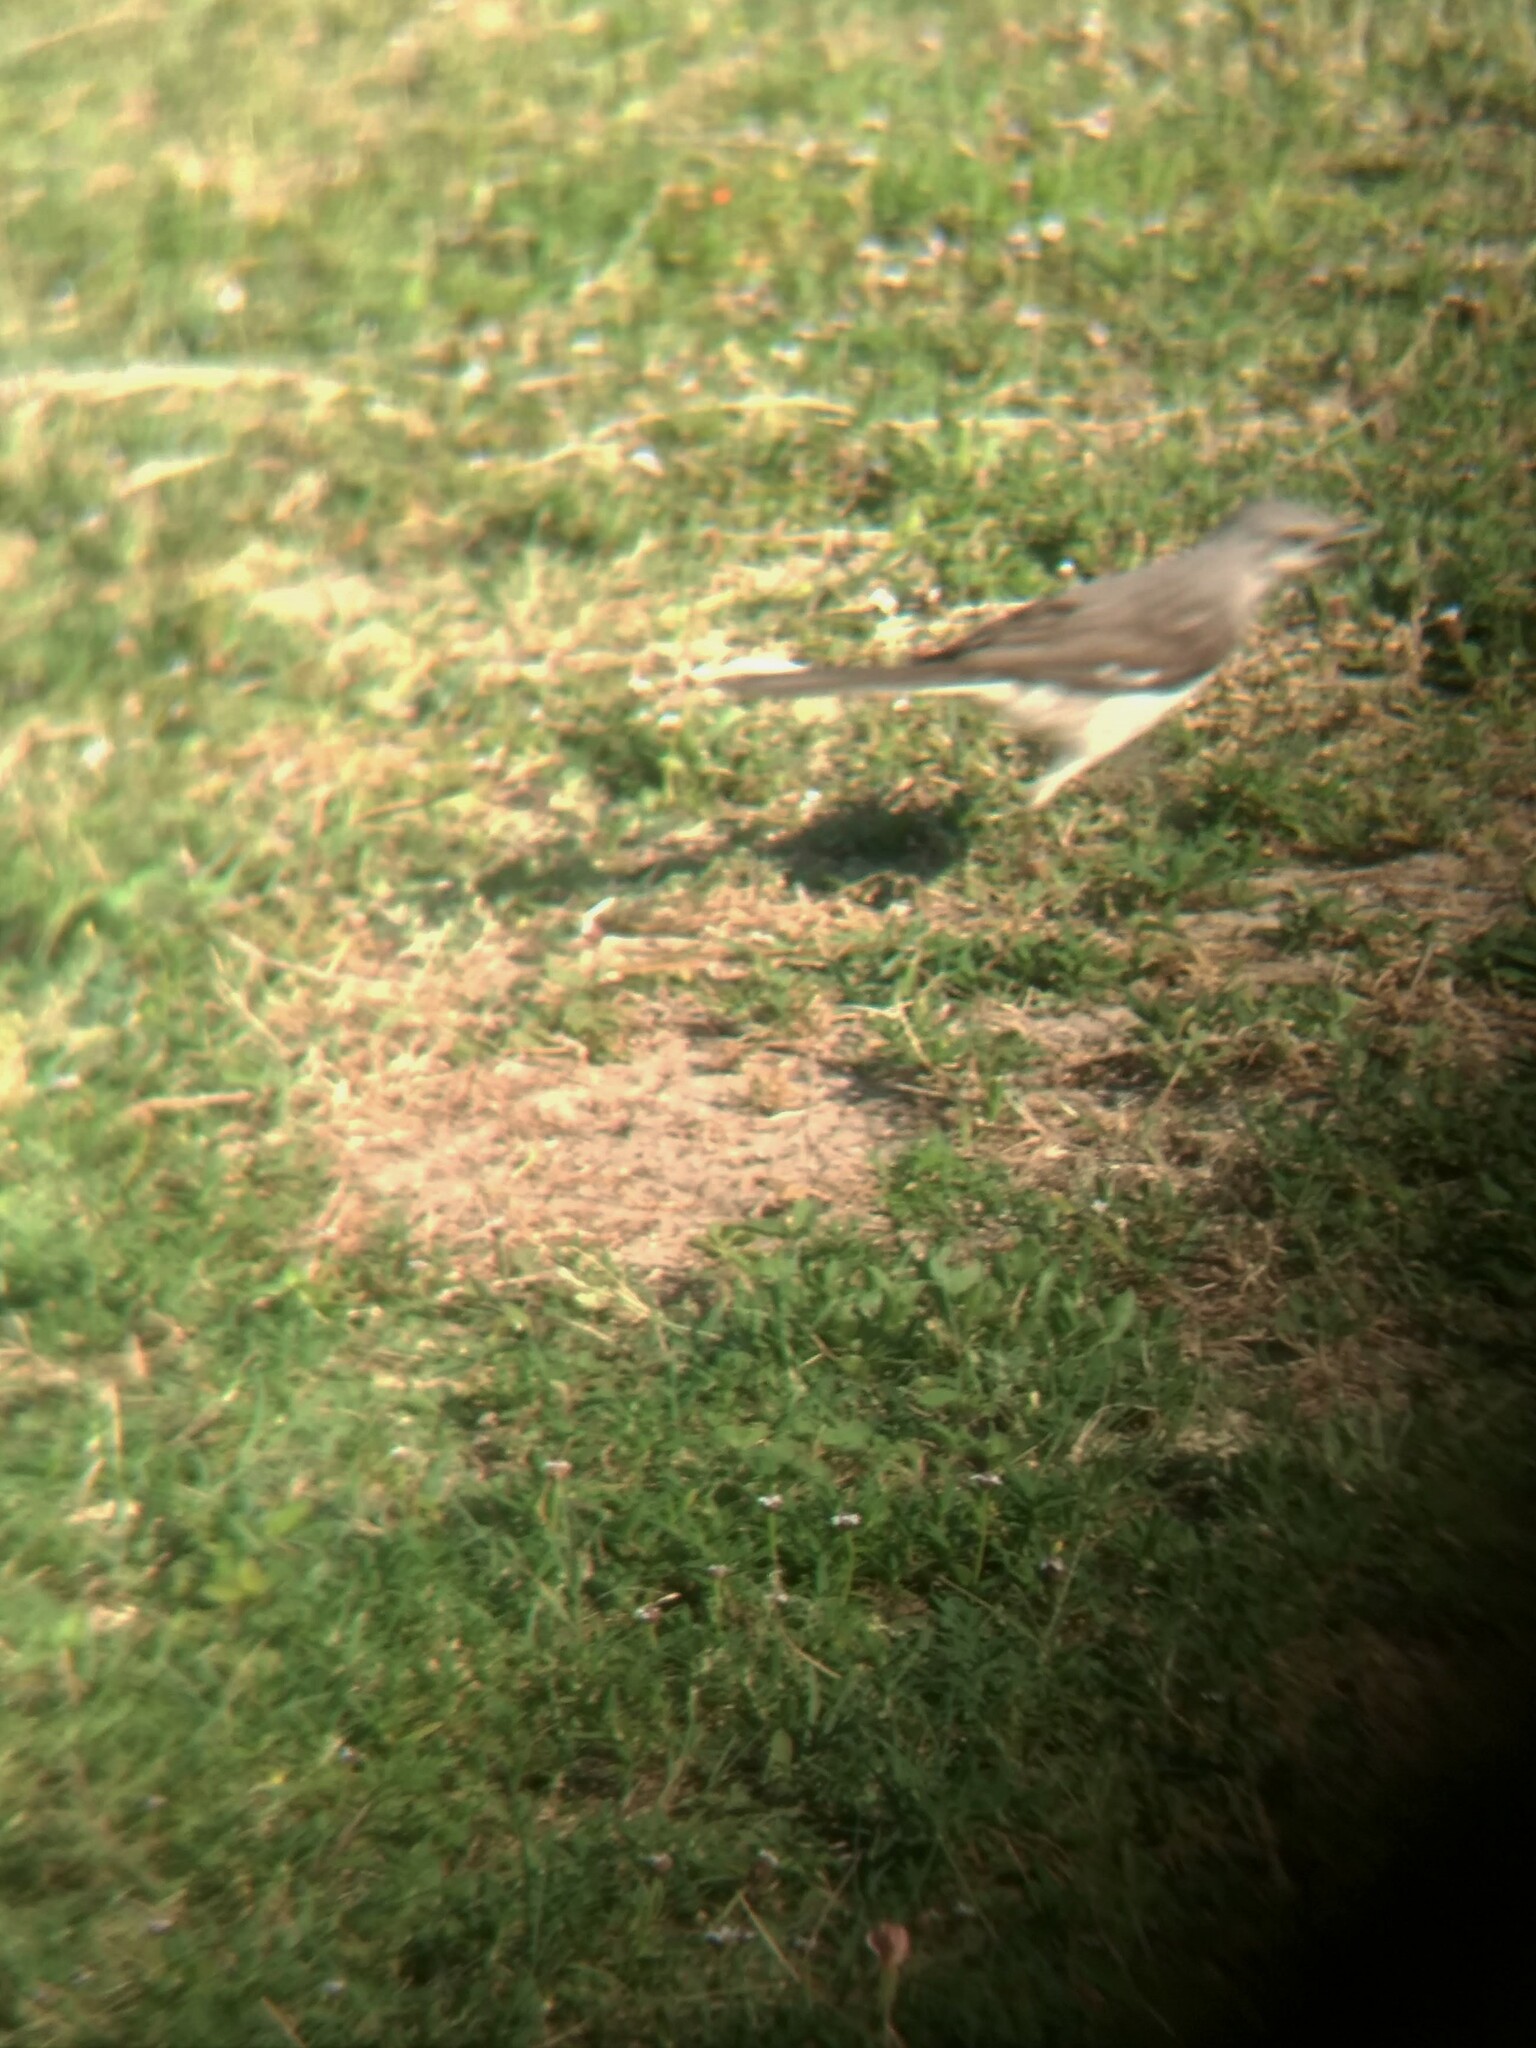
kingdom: Animalia
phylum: Chordata
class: Aves
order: Passeriformes
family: Mimidae
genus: Mimus
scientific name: Mimus polyglottos
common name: Northern mockingbird
